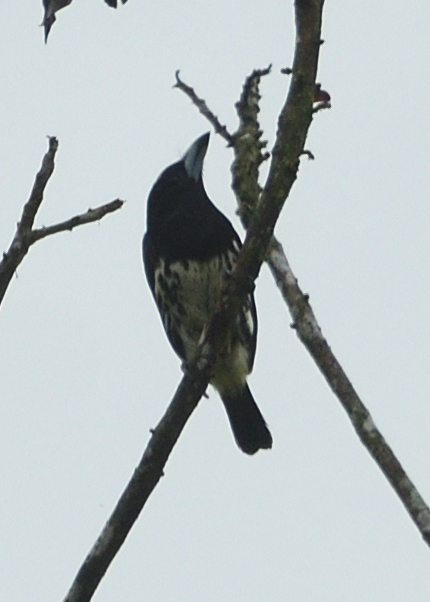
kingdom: Animalia
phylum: Chordata
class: Aves
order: Piciformes
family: Capitonidae
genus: Capito
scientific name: Capito maculicoronatus
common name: Spot-crowned barbet
